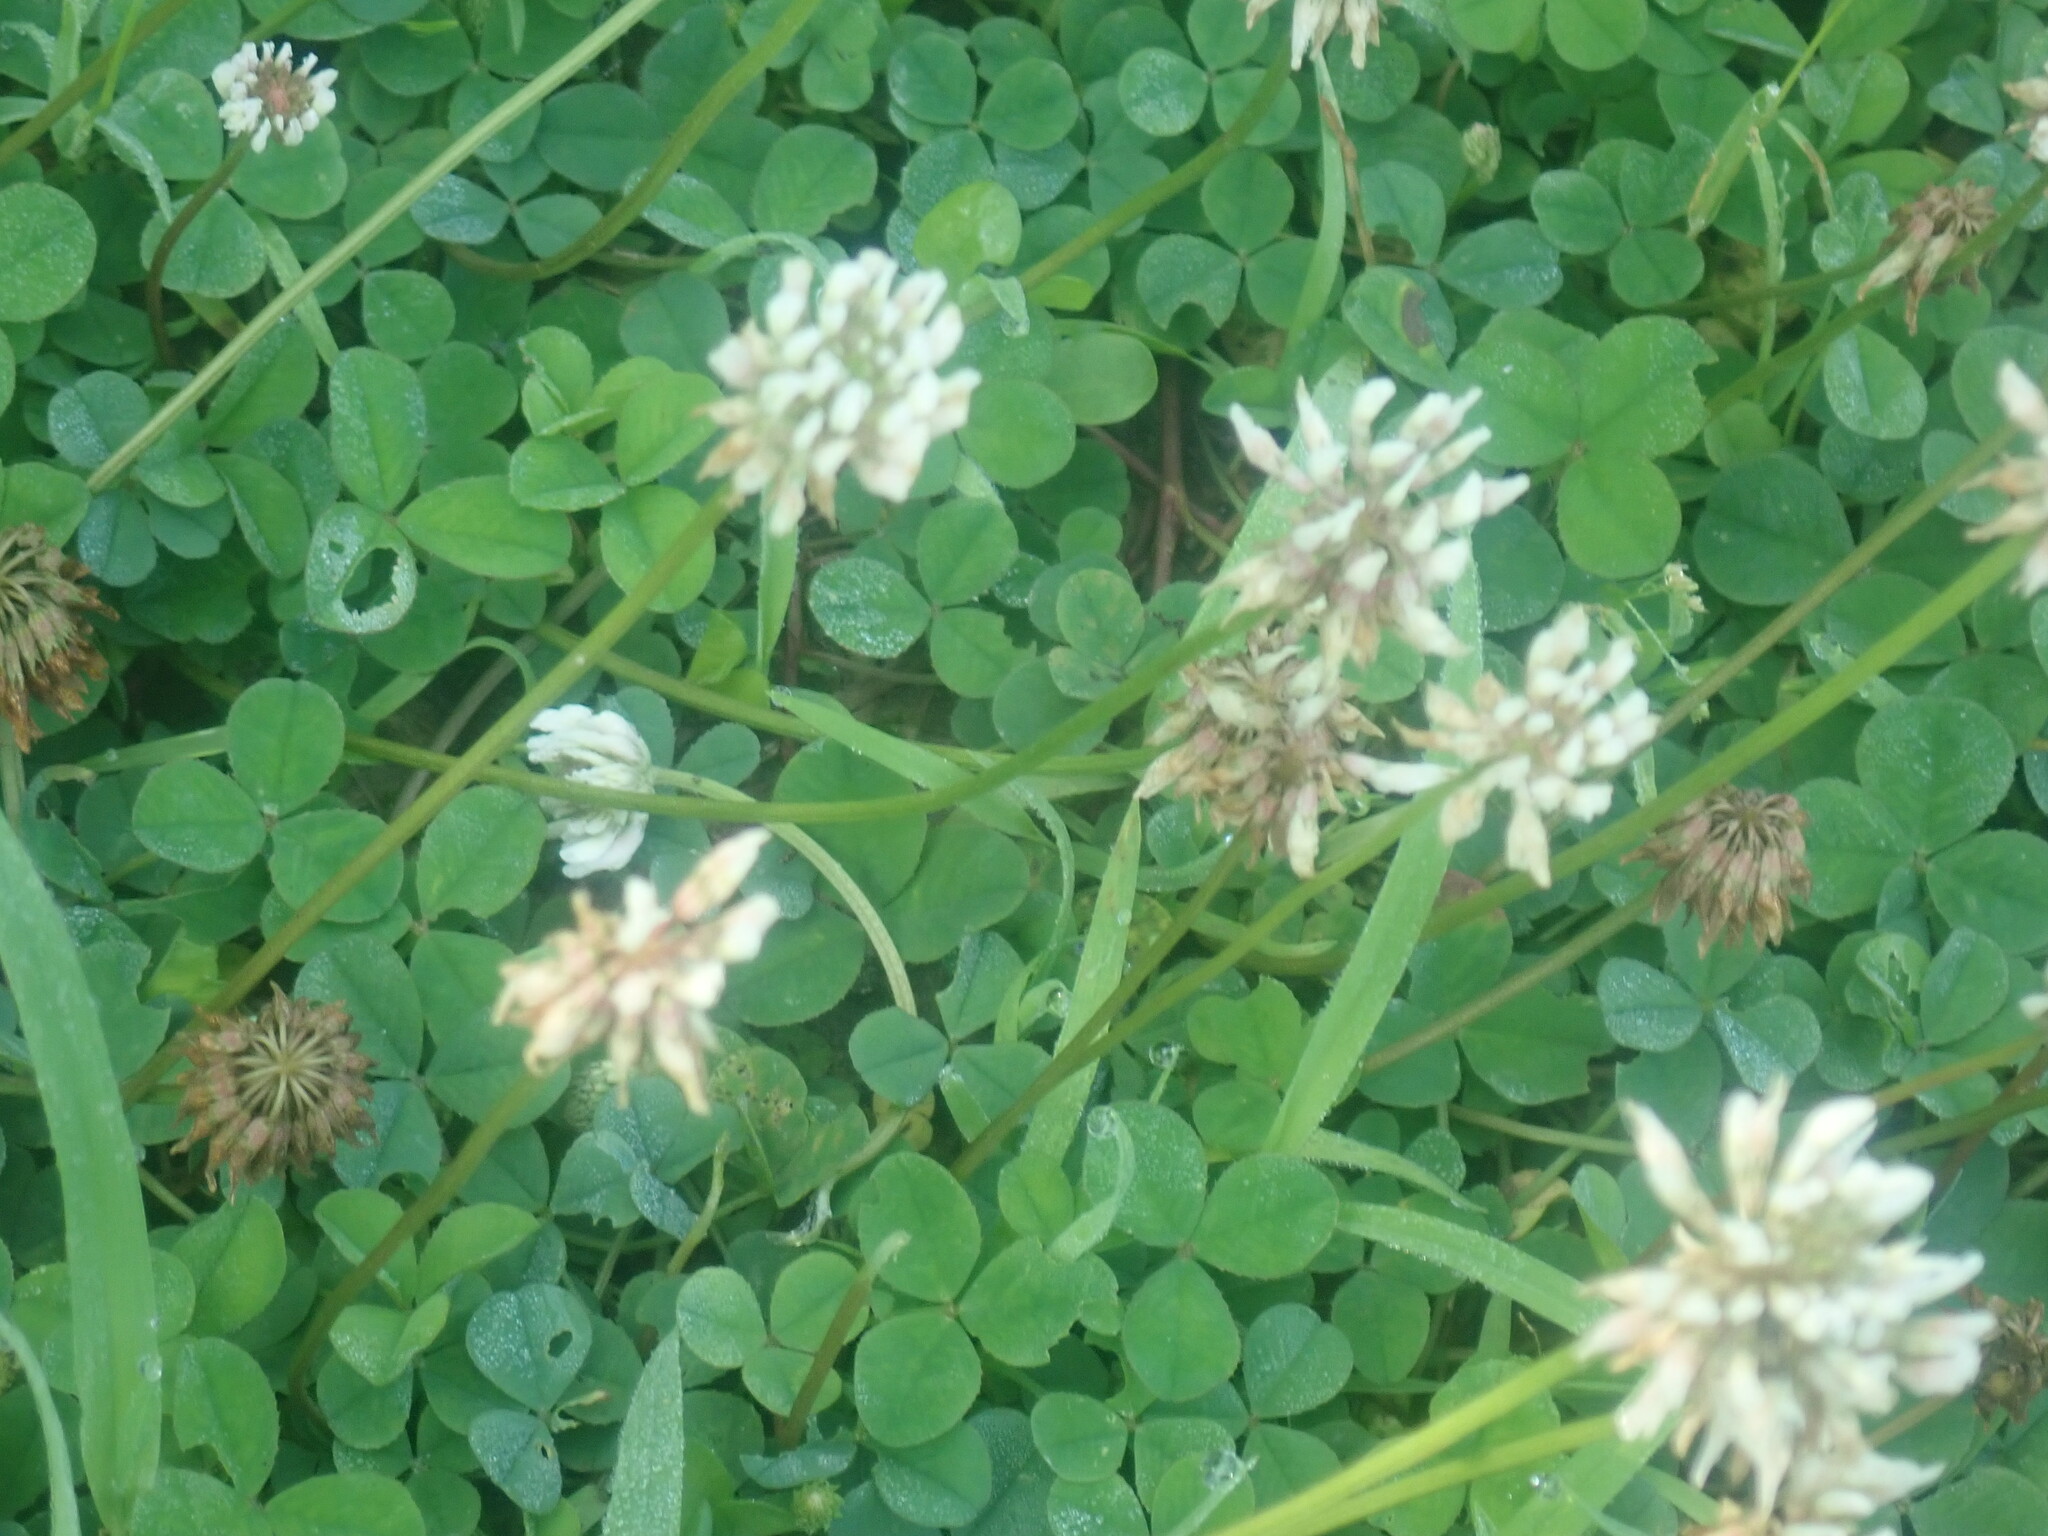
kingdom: Plantae
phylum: Tracheophyta
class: Magnoliopsida
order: Fabales
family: Fabaceae
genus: Trifolium
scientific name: Trifolium repens
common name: White clover
